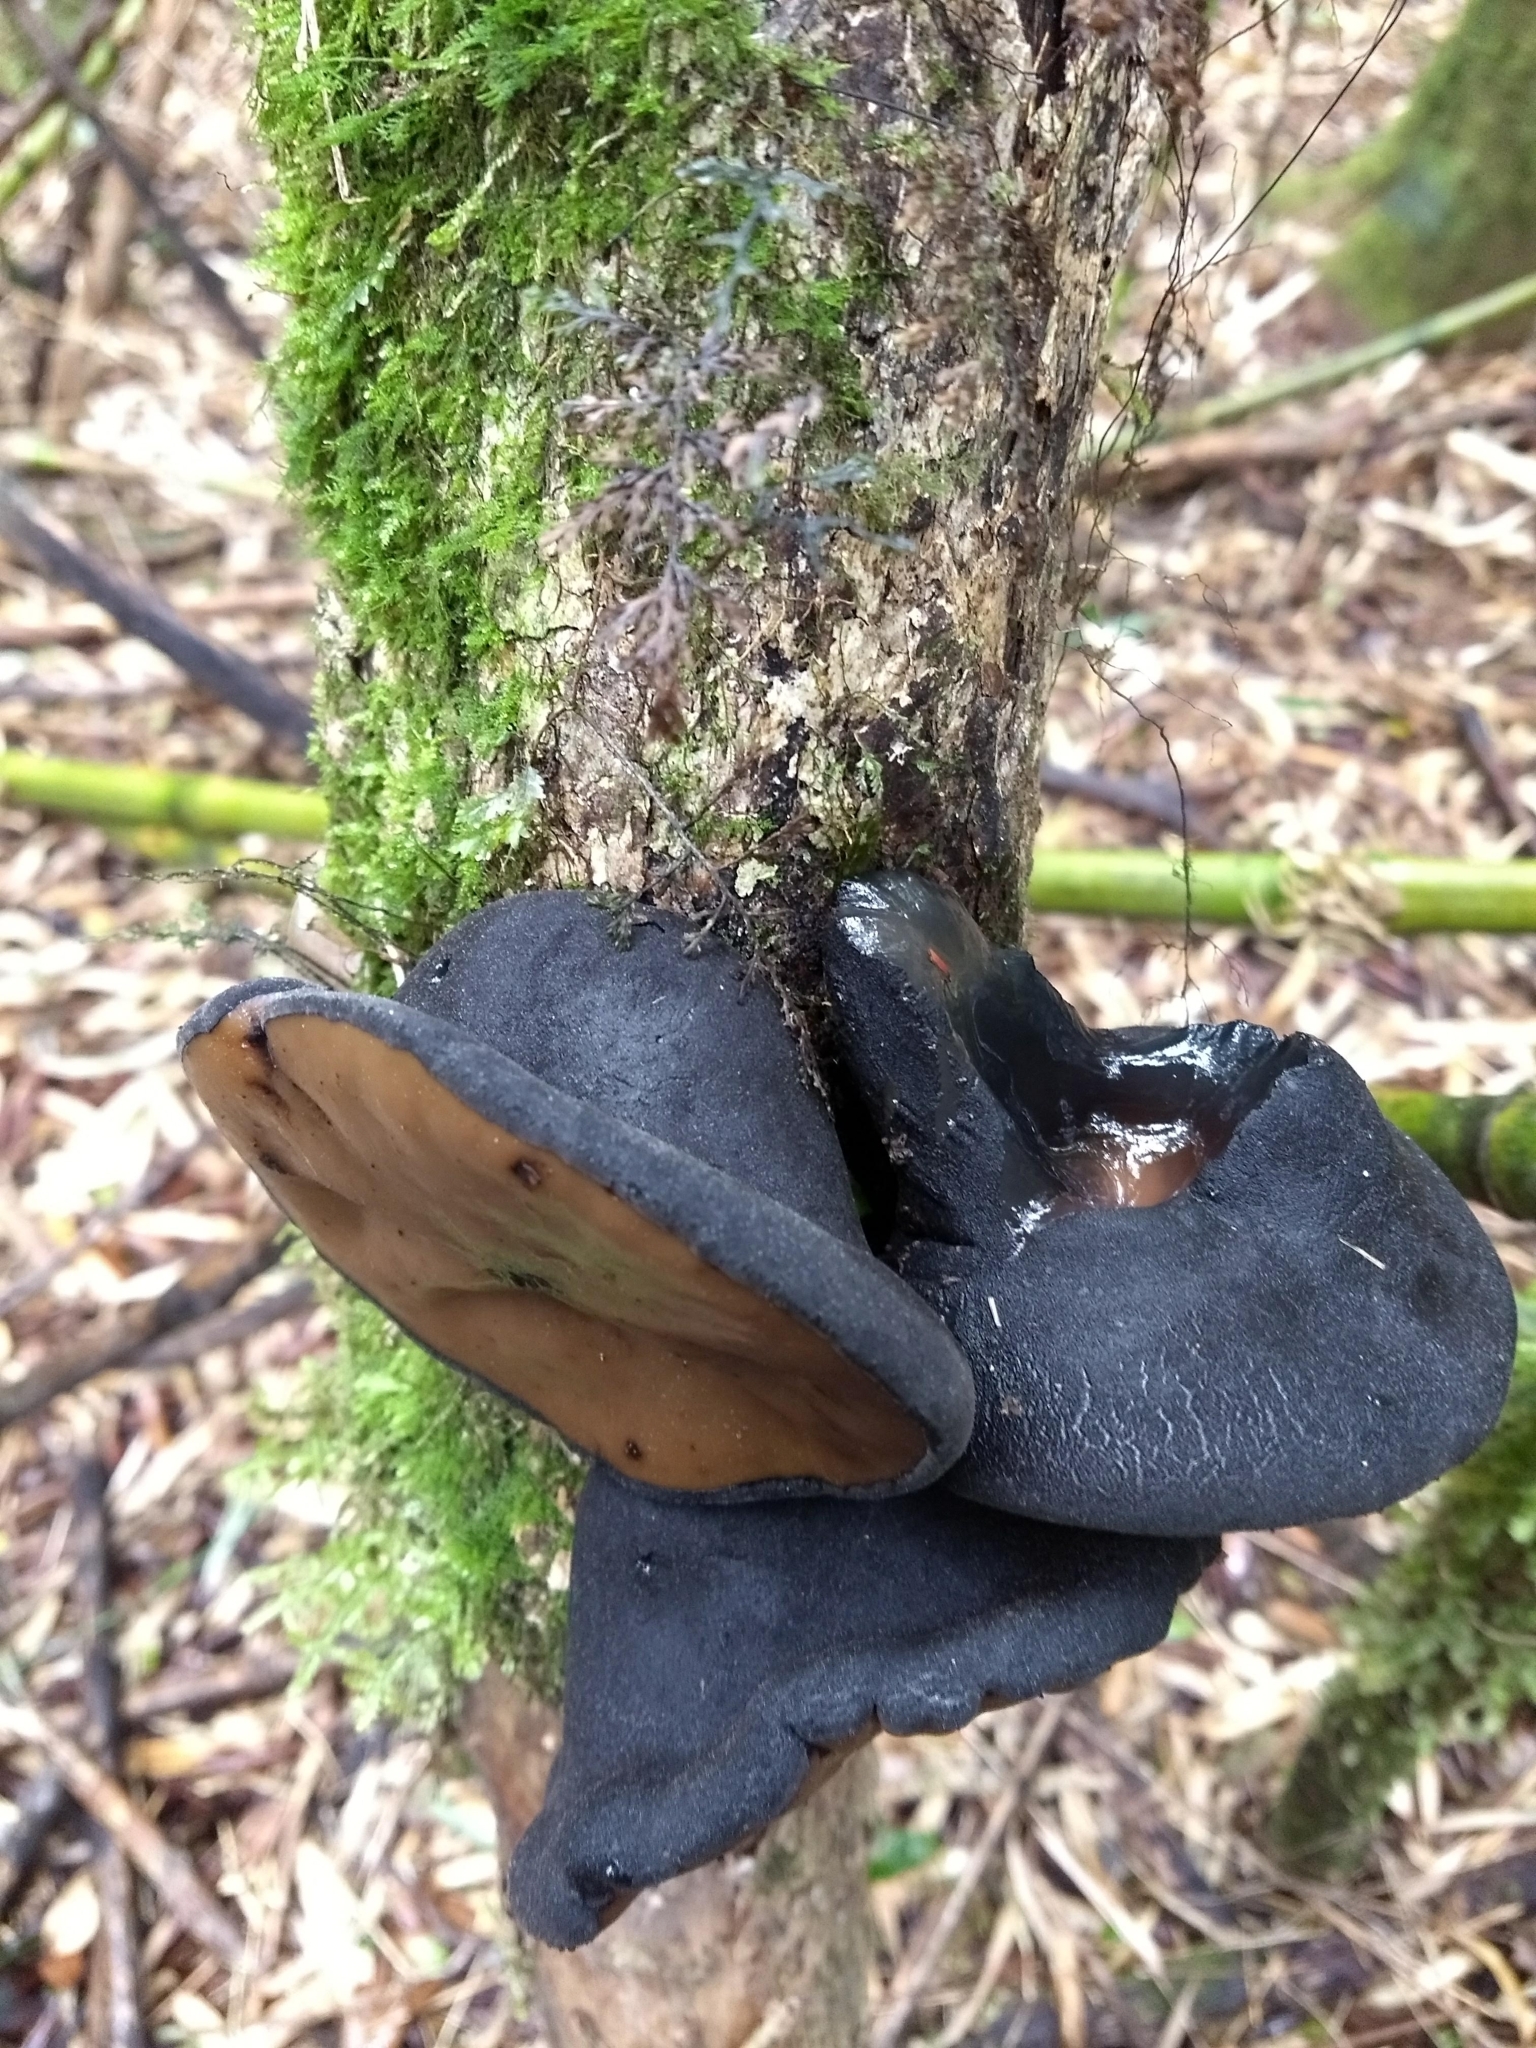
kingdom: Fungi
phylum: Ascomycota
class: Pezizomycetes
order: Pezizales
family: Sarcosomataceae
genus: Plectania
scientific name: Plectania chilensis
